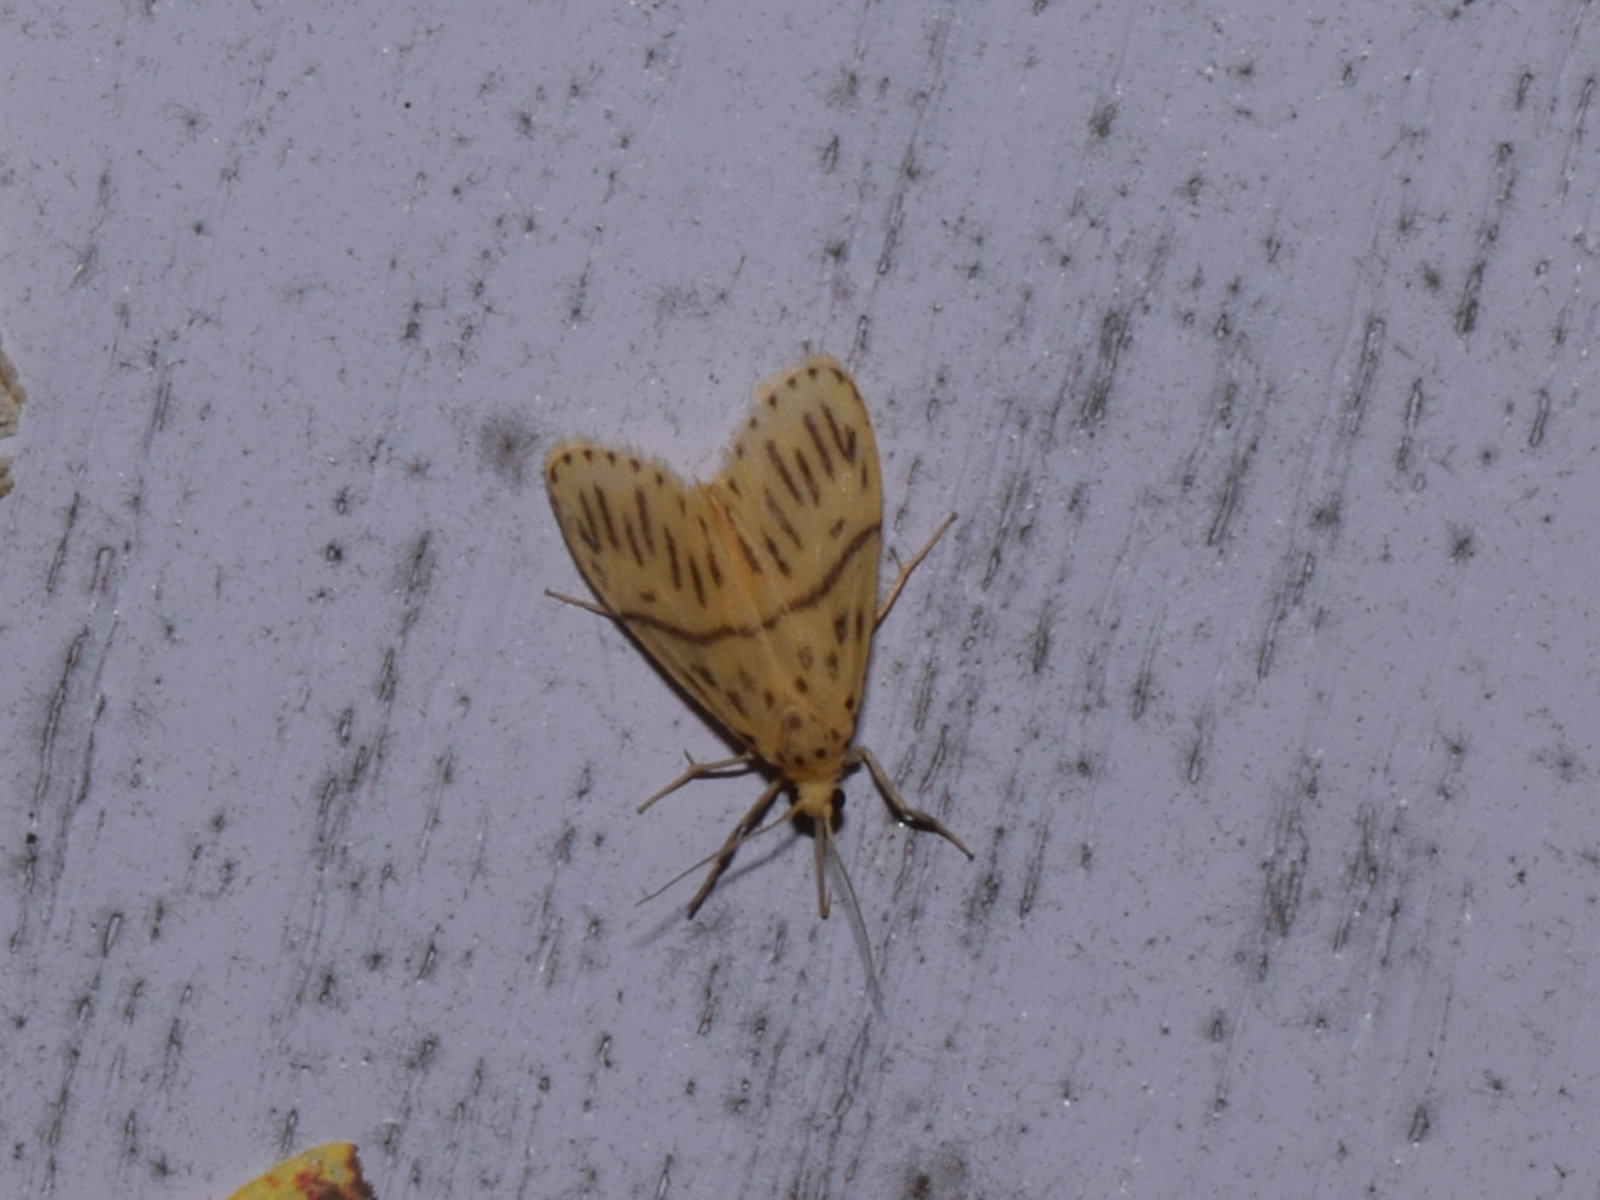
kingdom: Animalia
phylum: Arthropoda
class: Insecta
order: Lepidoptera
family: Erebidae
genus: Miltochrista
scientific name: Miltochrista strigipennis
